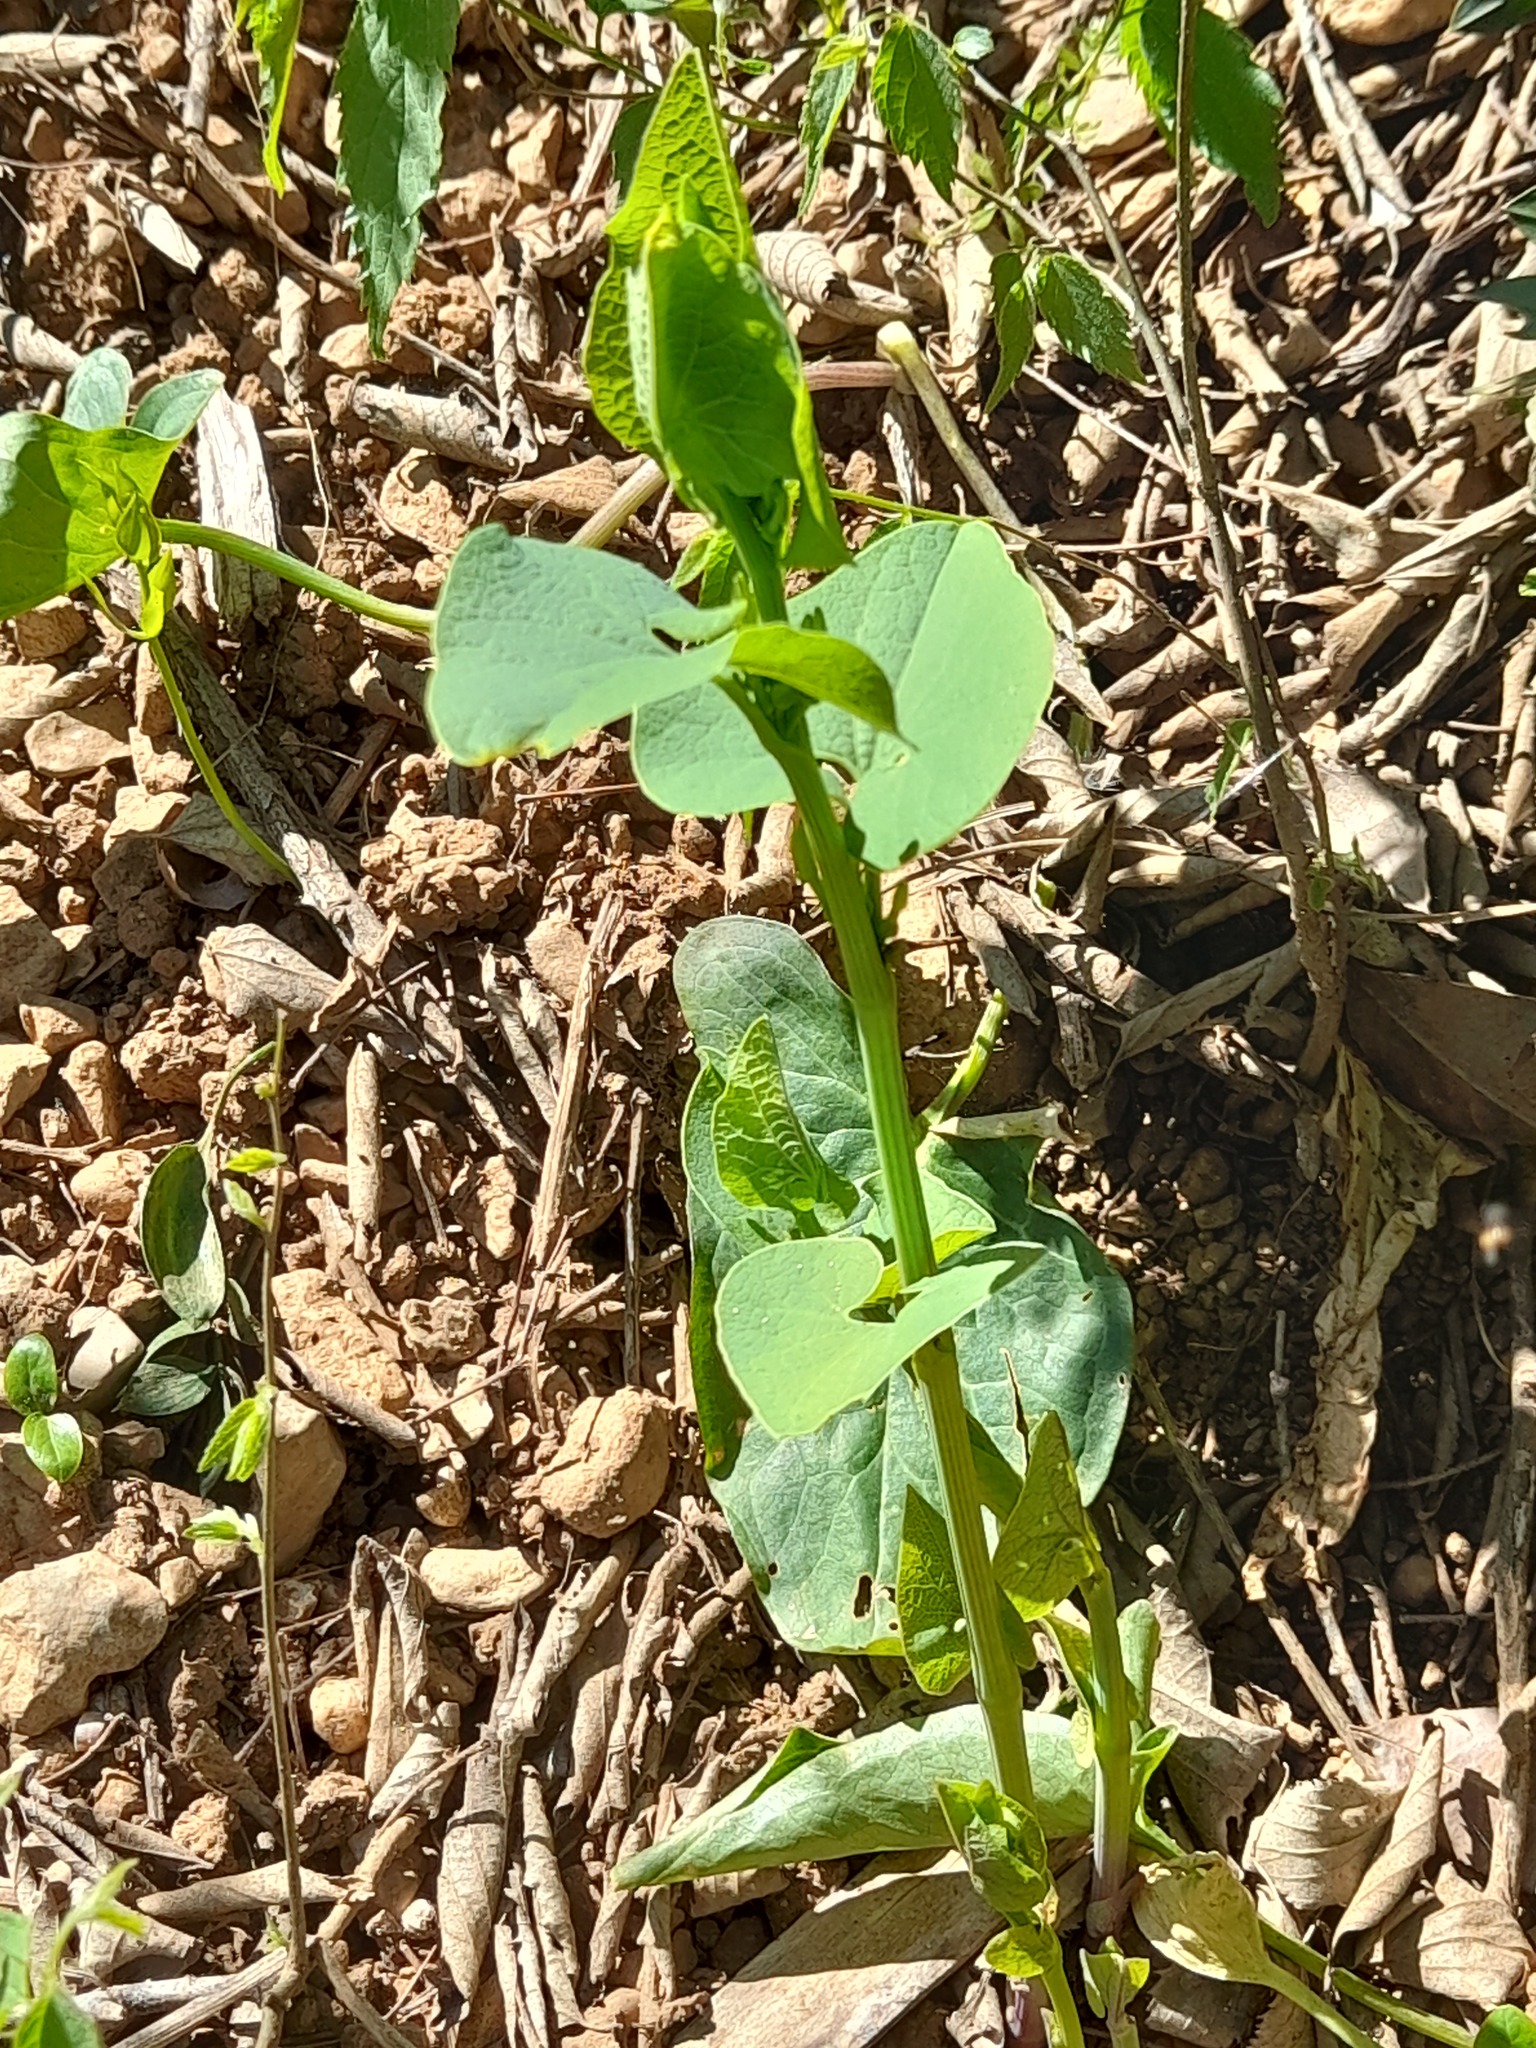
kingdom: Plantae
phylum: Tracheophyta
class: Magnoliopsida
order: Piperales
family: Aristolochiaceae
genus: Aristolochia
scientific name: Aristolochia clematitis
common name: Birthwort
